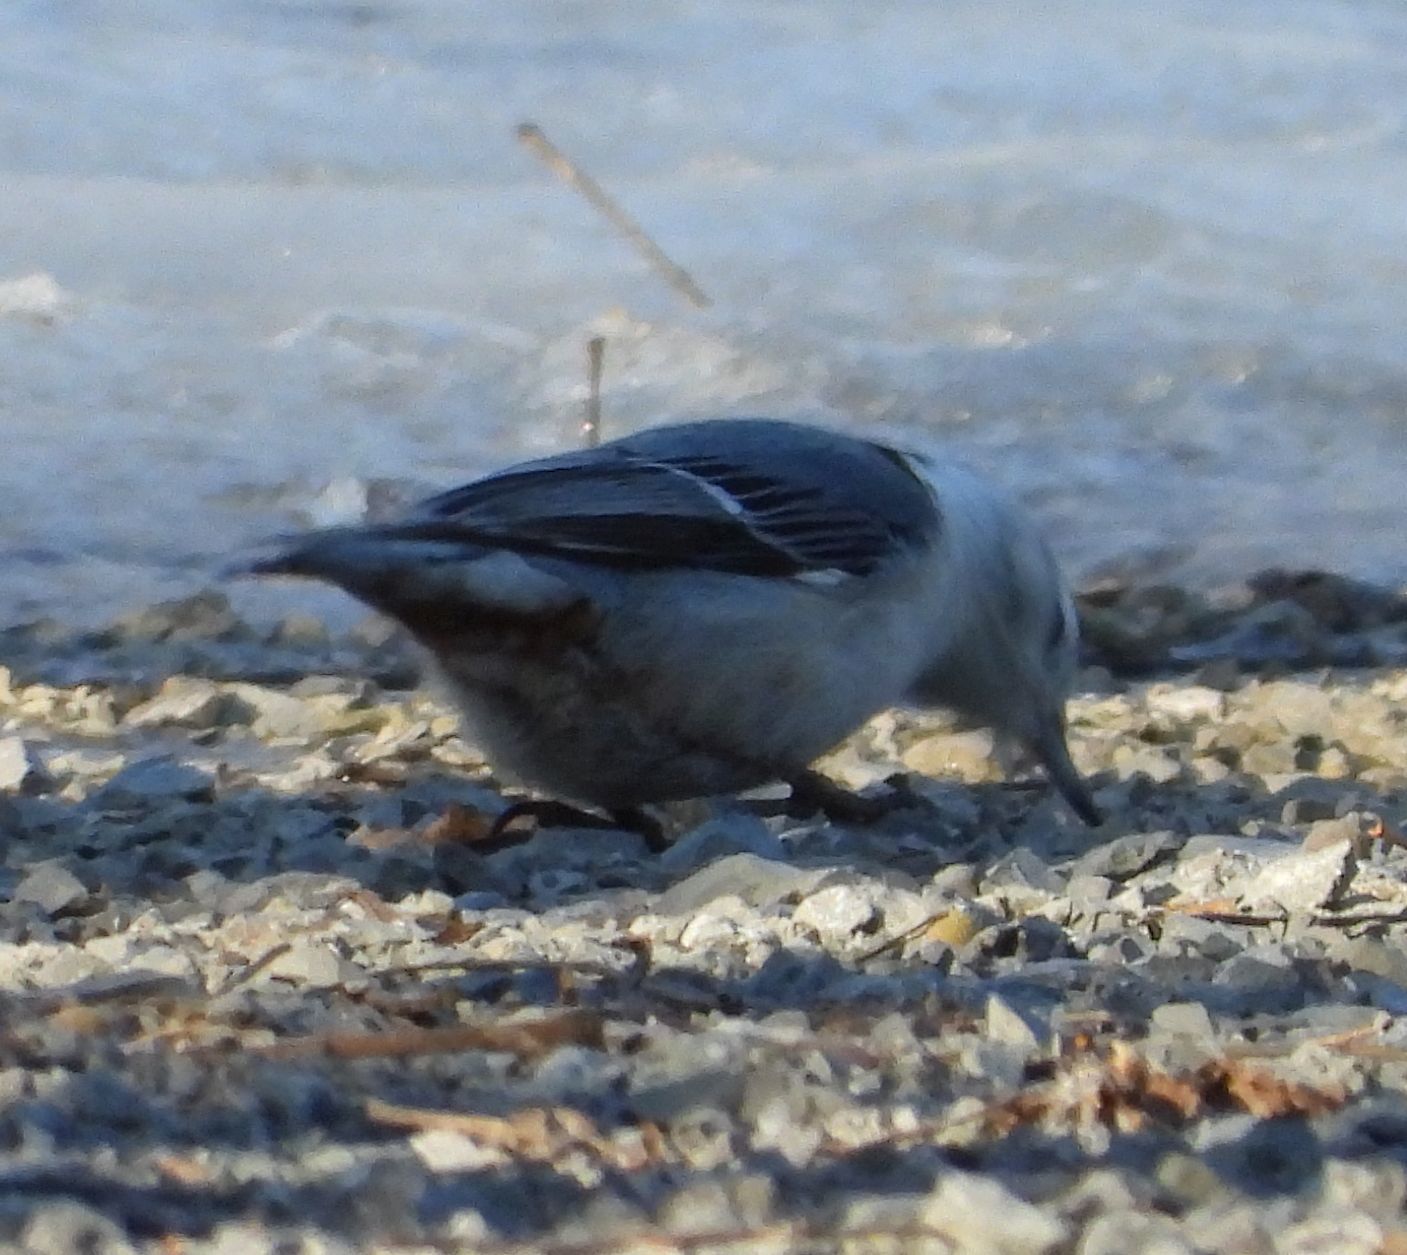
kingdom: Animalia
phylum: Chordata
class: Aves
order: Passeriformes
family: Sittidae
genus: Sitta
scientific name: Sitta carolinensis
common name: White-breasted nuthatch
